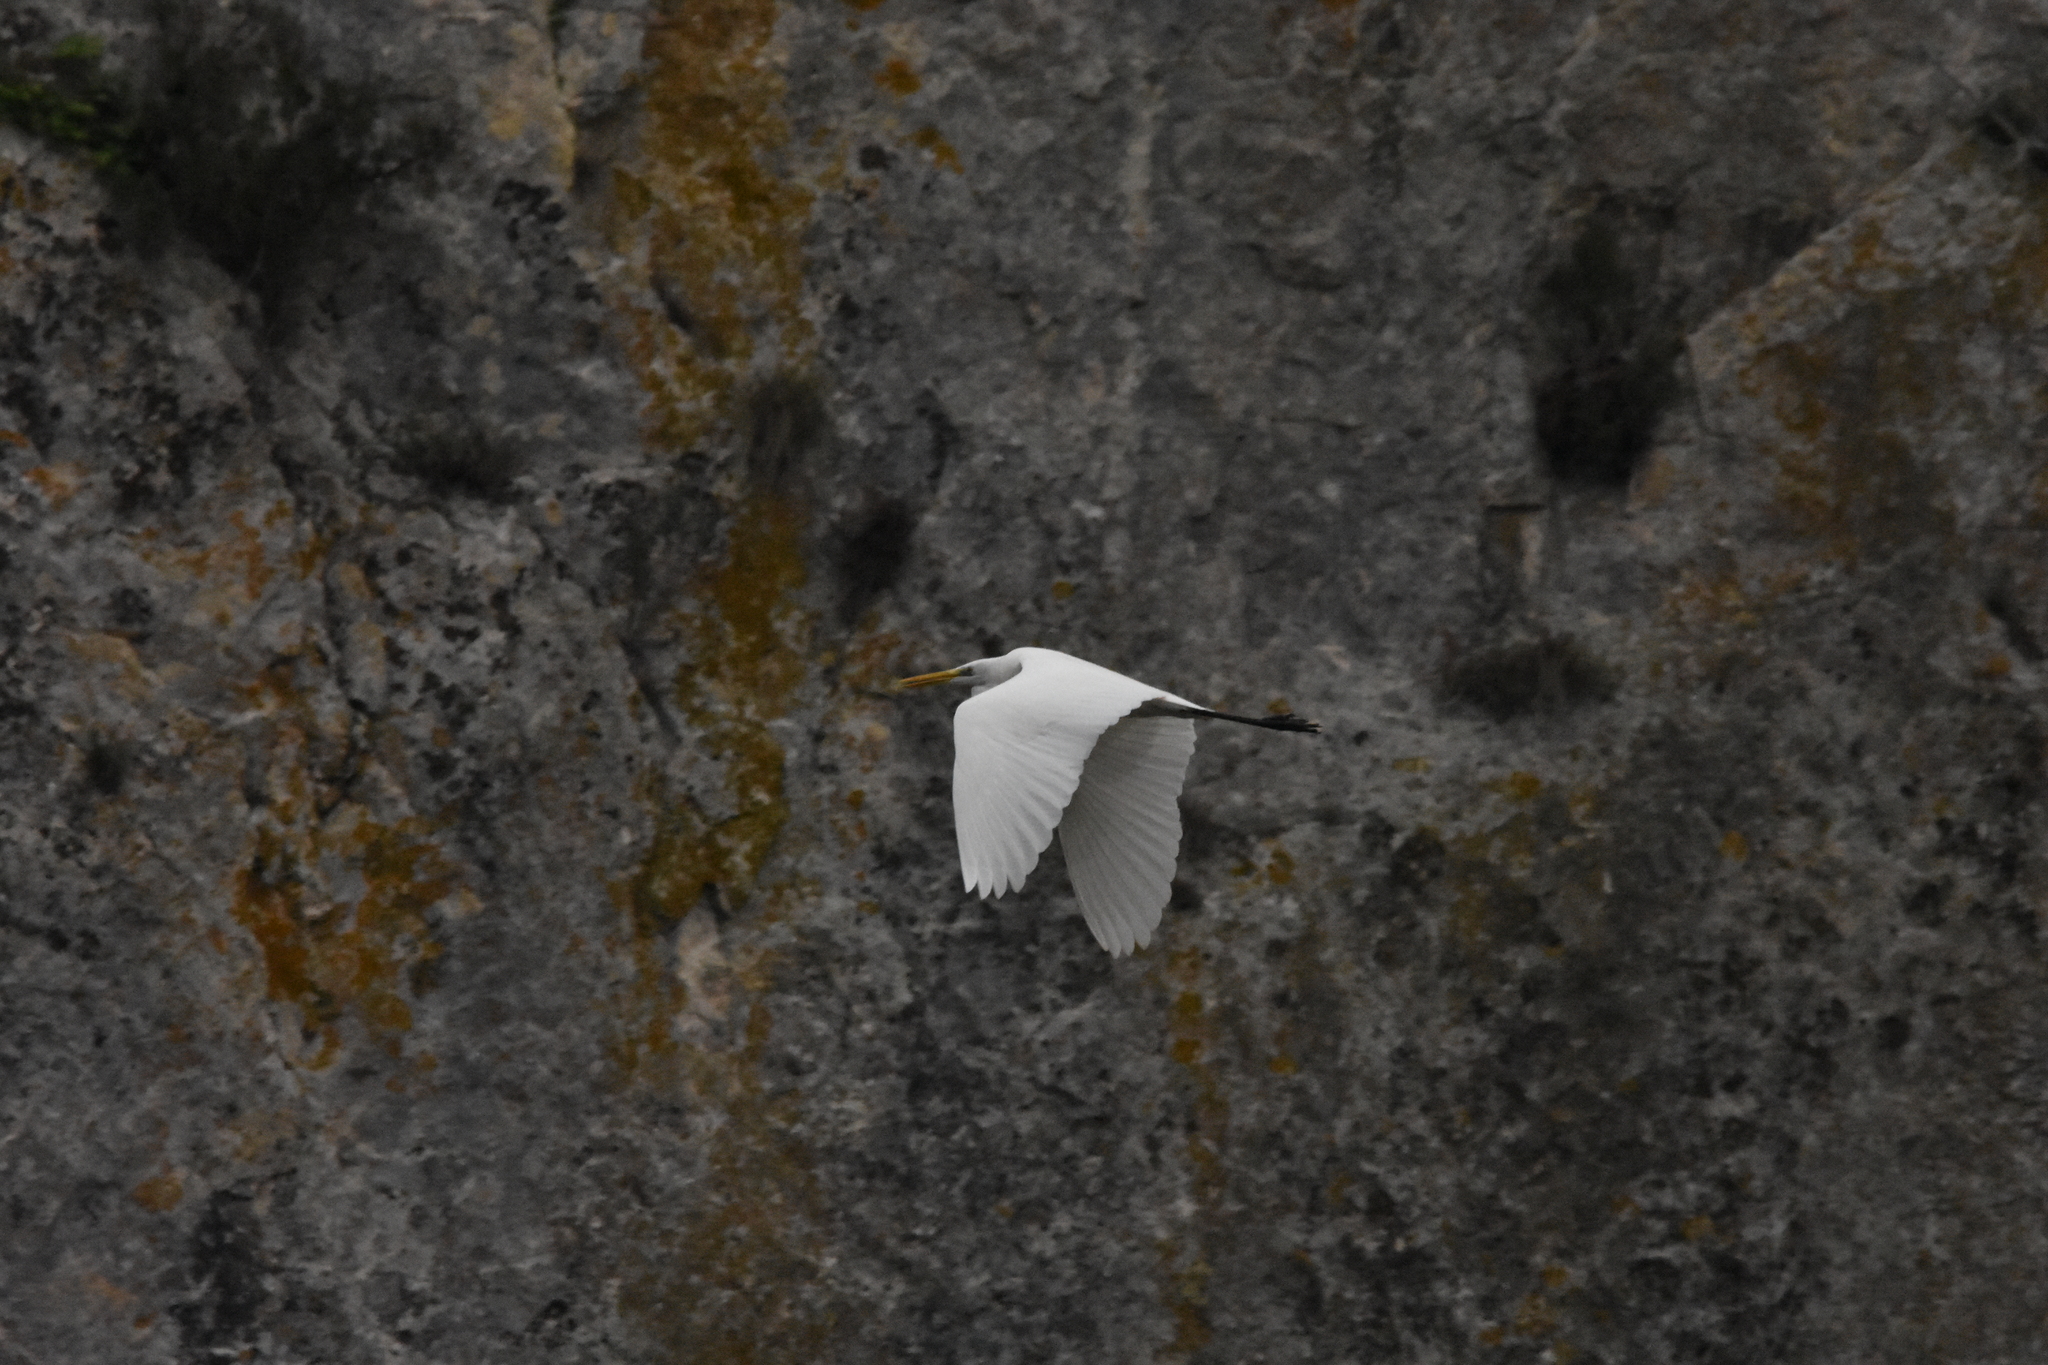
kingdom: Animalia
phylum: Chordata
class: Aves
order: Pelecaniformes
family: Ardeidae
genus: Ardea
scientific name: Ardea alba
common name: Great egret
